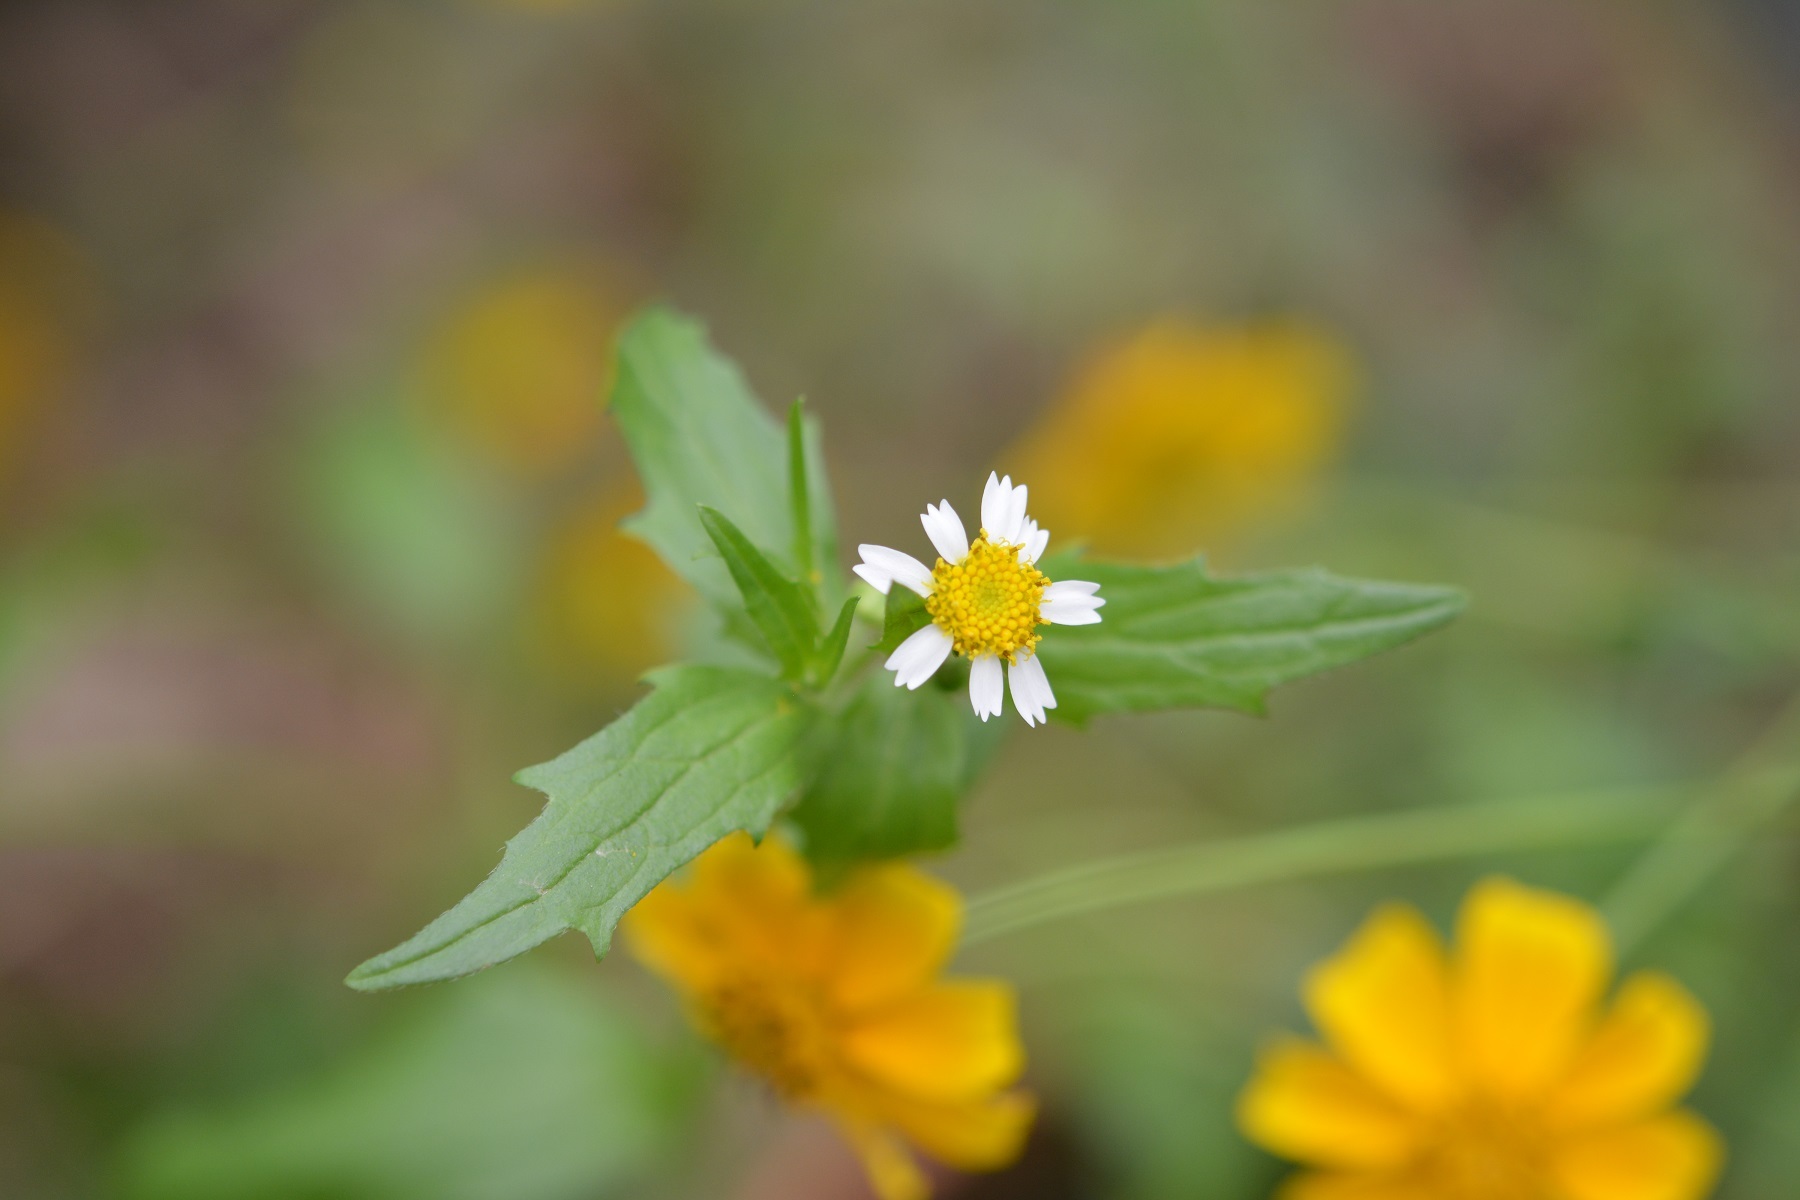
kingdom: Plantae
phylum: Tracheophyta
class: Magnoliopsida
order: Asterales
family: Asteraceae
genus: Galinsoga
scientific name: Galinsoga quadriradiata
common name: Shaggy soldier
